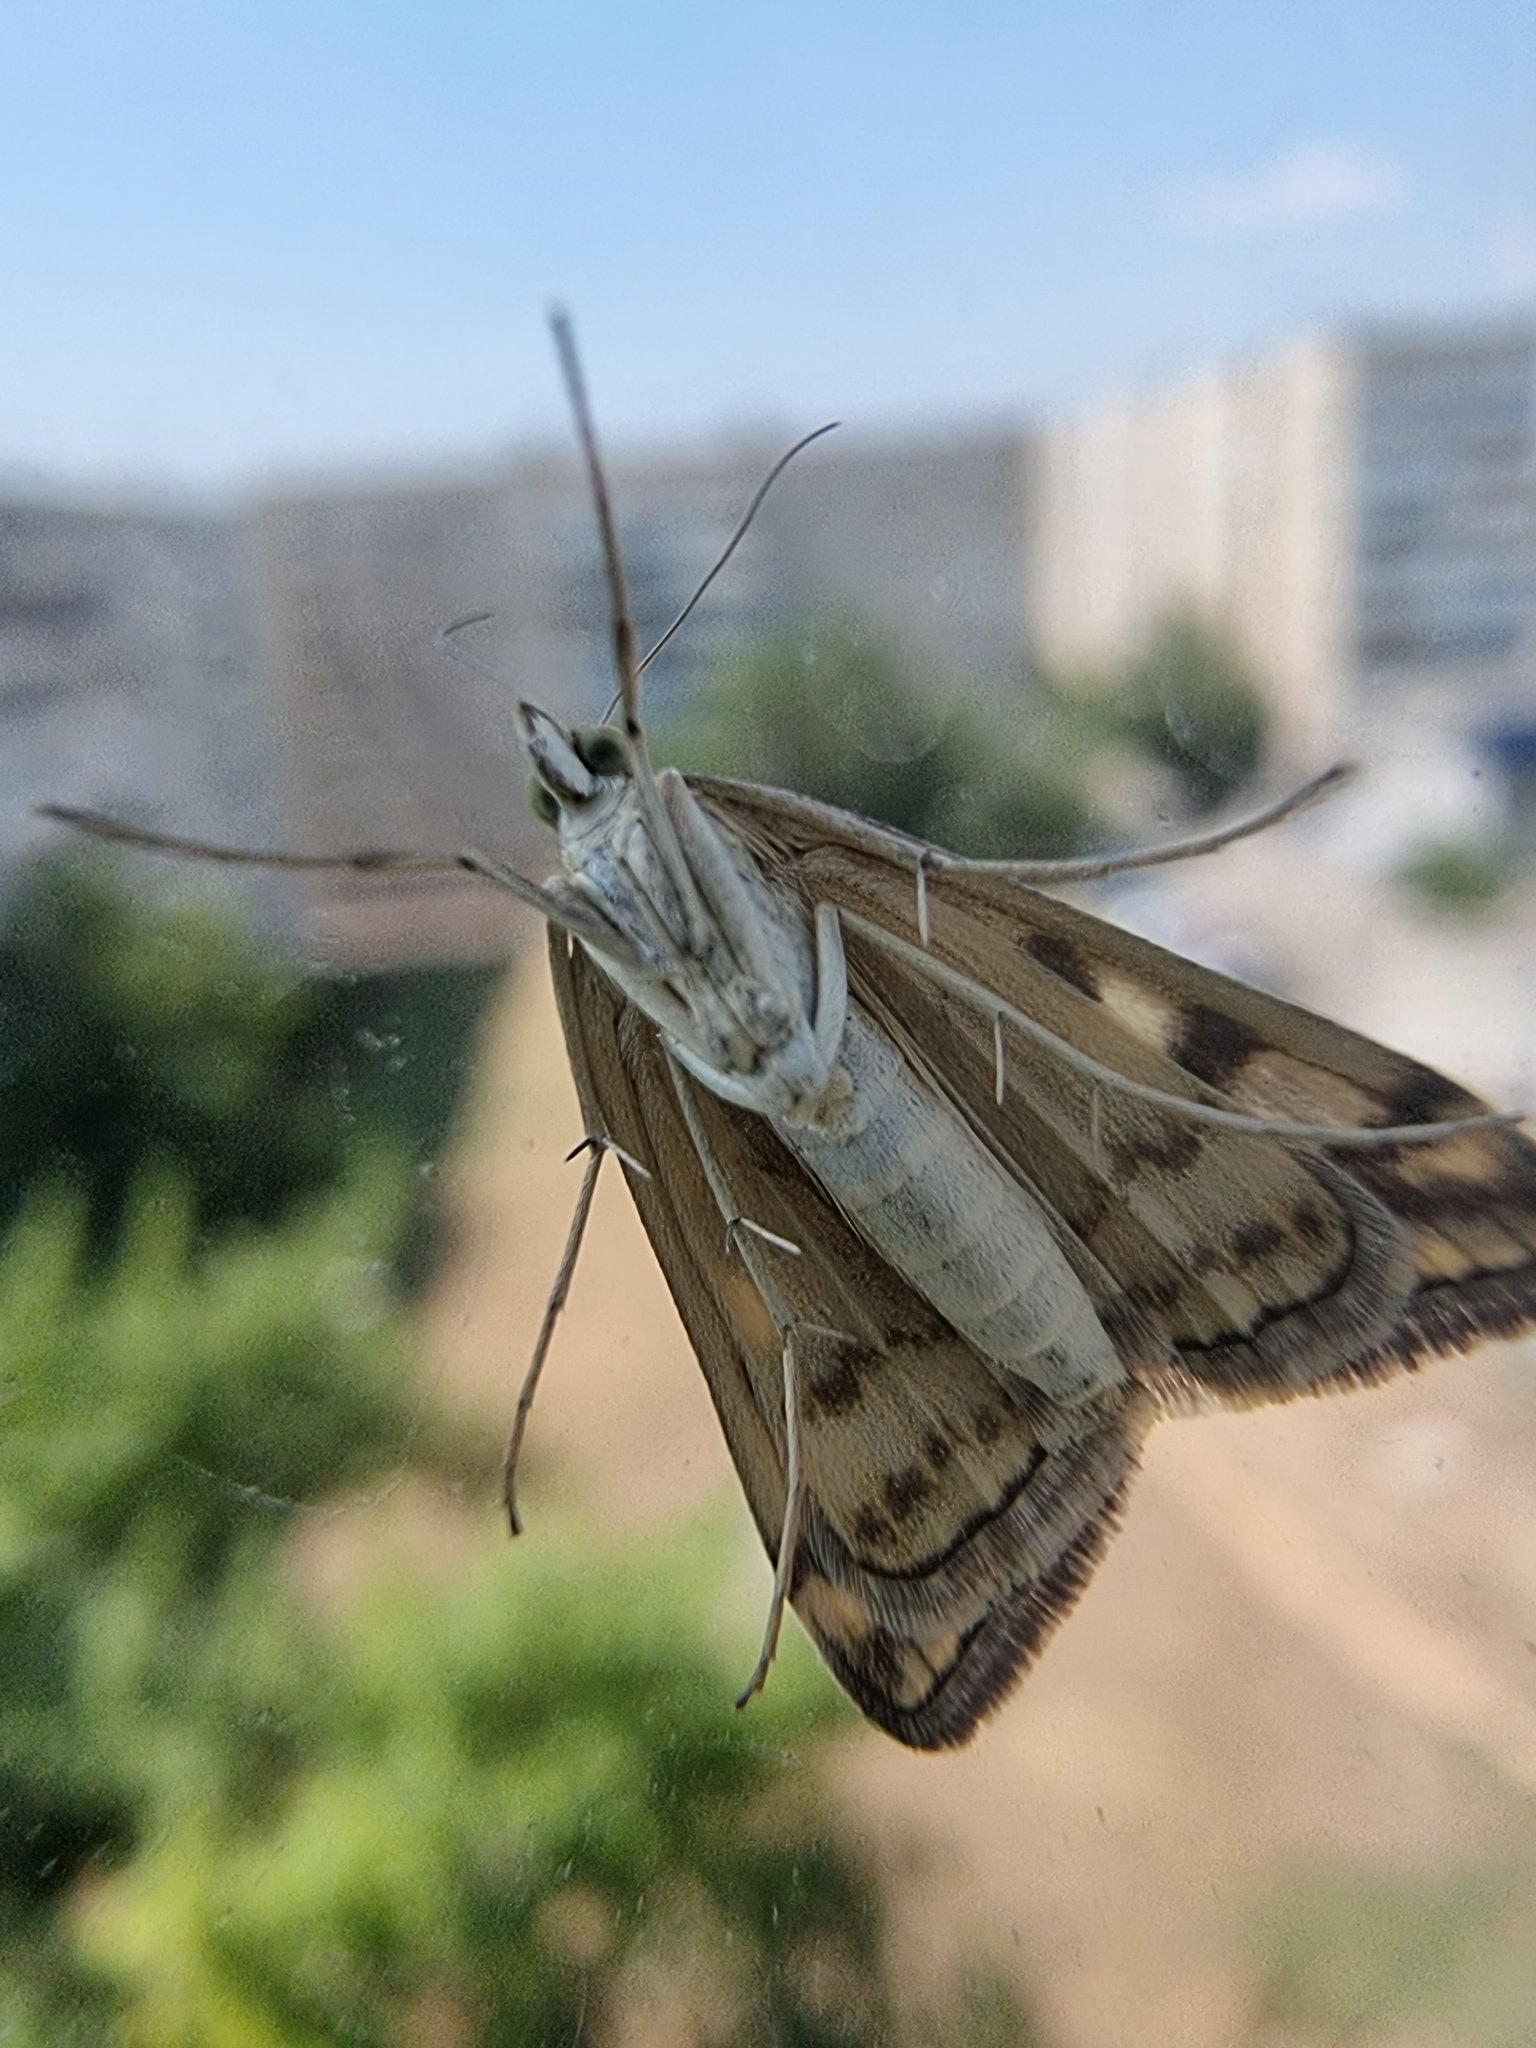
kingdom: Animalia
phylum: Arthropoda
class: Insecta
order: Lepidoptera
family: Crambidae
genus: Loxostege
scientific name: Loxostege sticticalis
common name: Crambid moth
